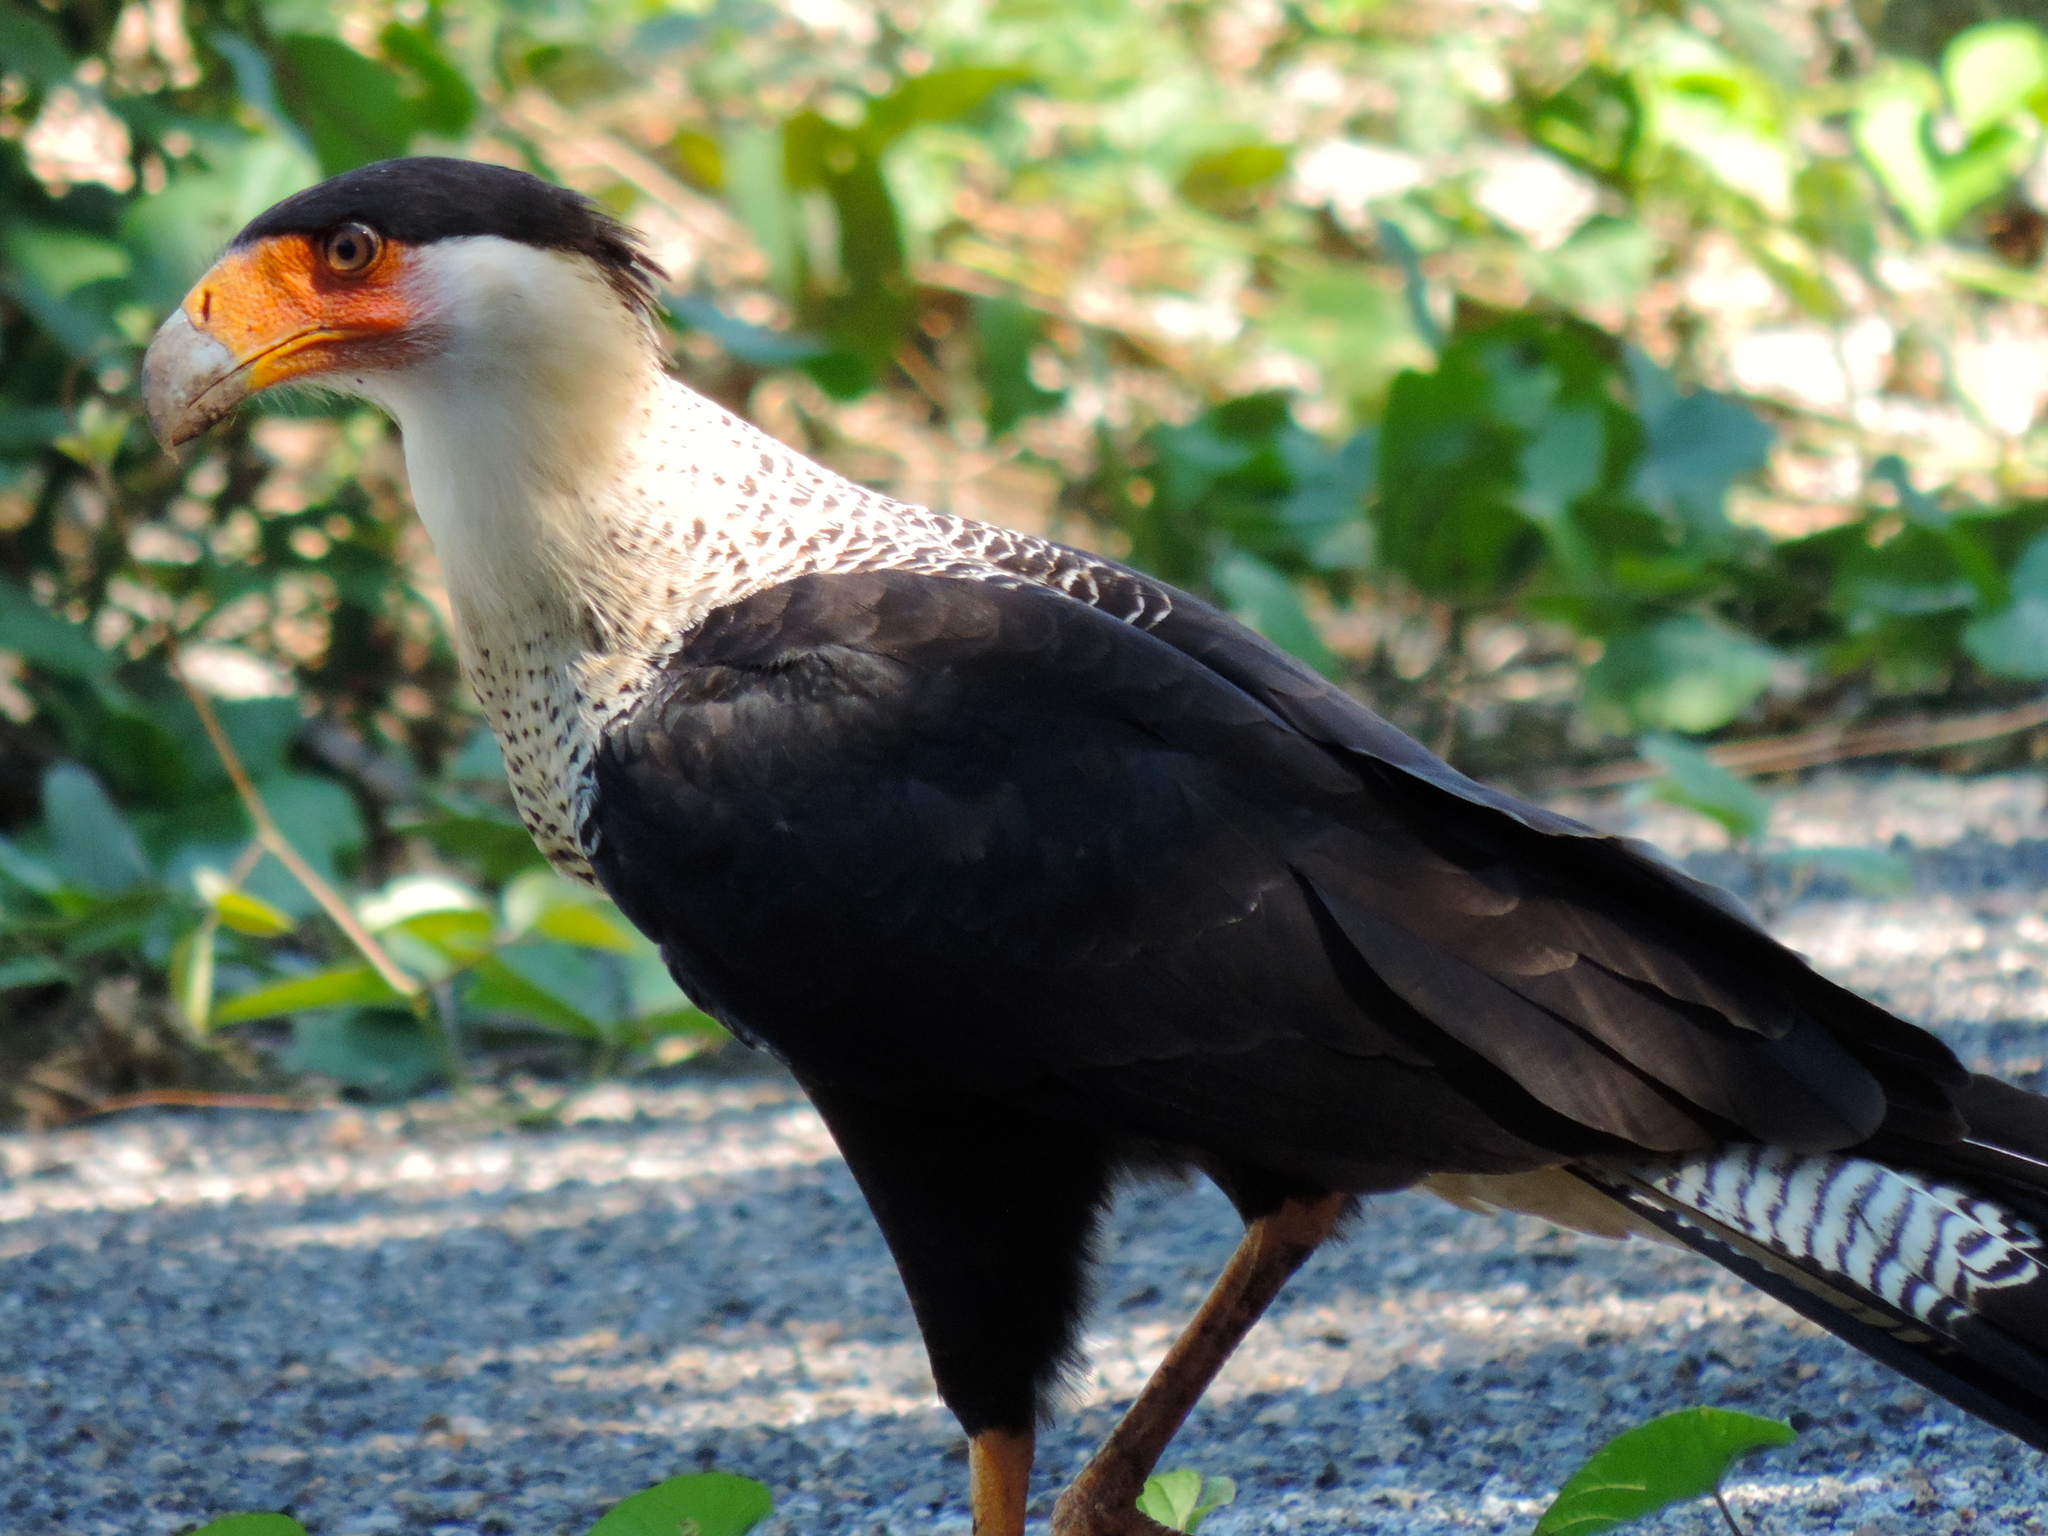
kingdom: Animalia
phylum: Chordata
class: Aves
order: Falconiformes
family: Falconidae
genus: Caracara
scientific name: Caracara plancus
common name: Southern caracara
